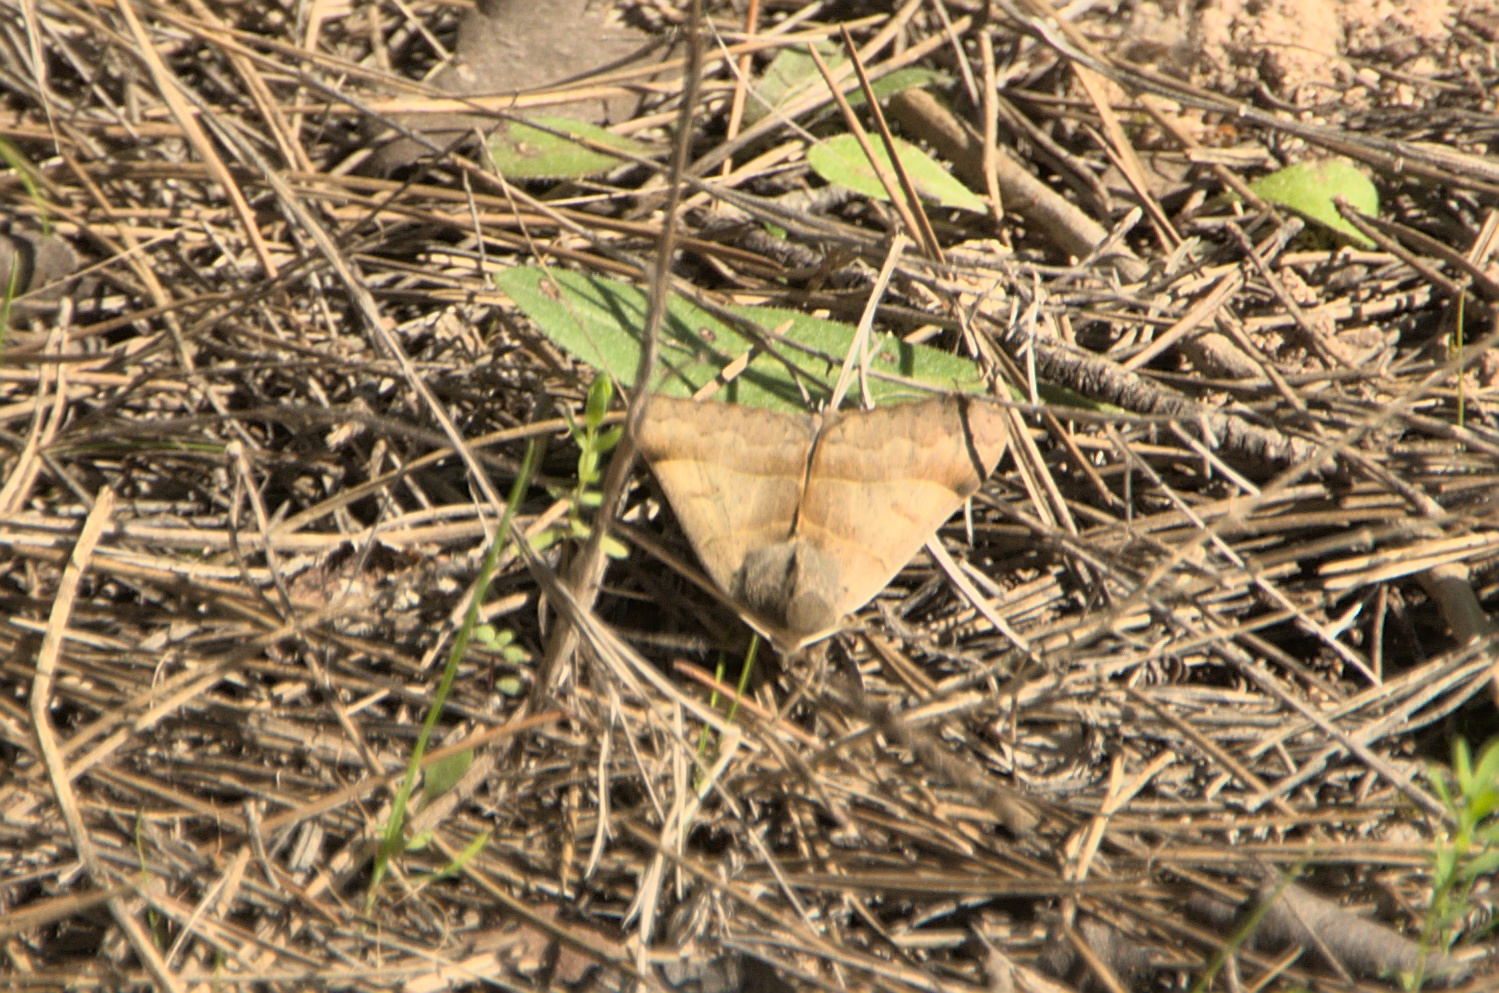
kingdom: Animalia
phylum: Arthropoda
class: Insecta
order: Lepidoptera
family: Erebidae
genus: Minucia
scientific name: Minucia lunaris
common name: Lunar double-stripe
